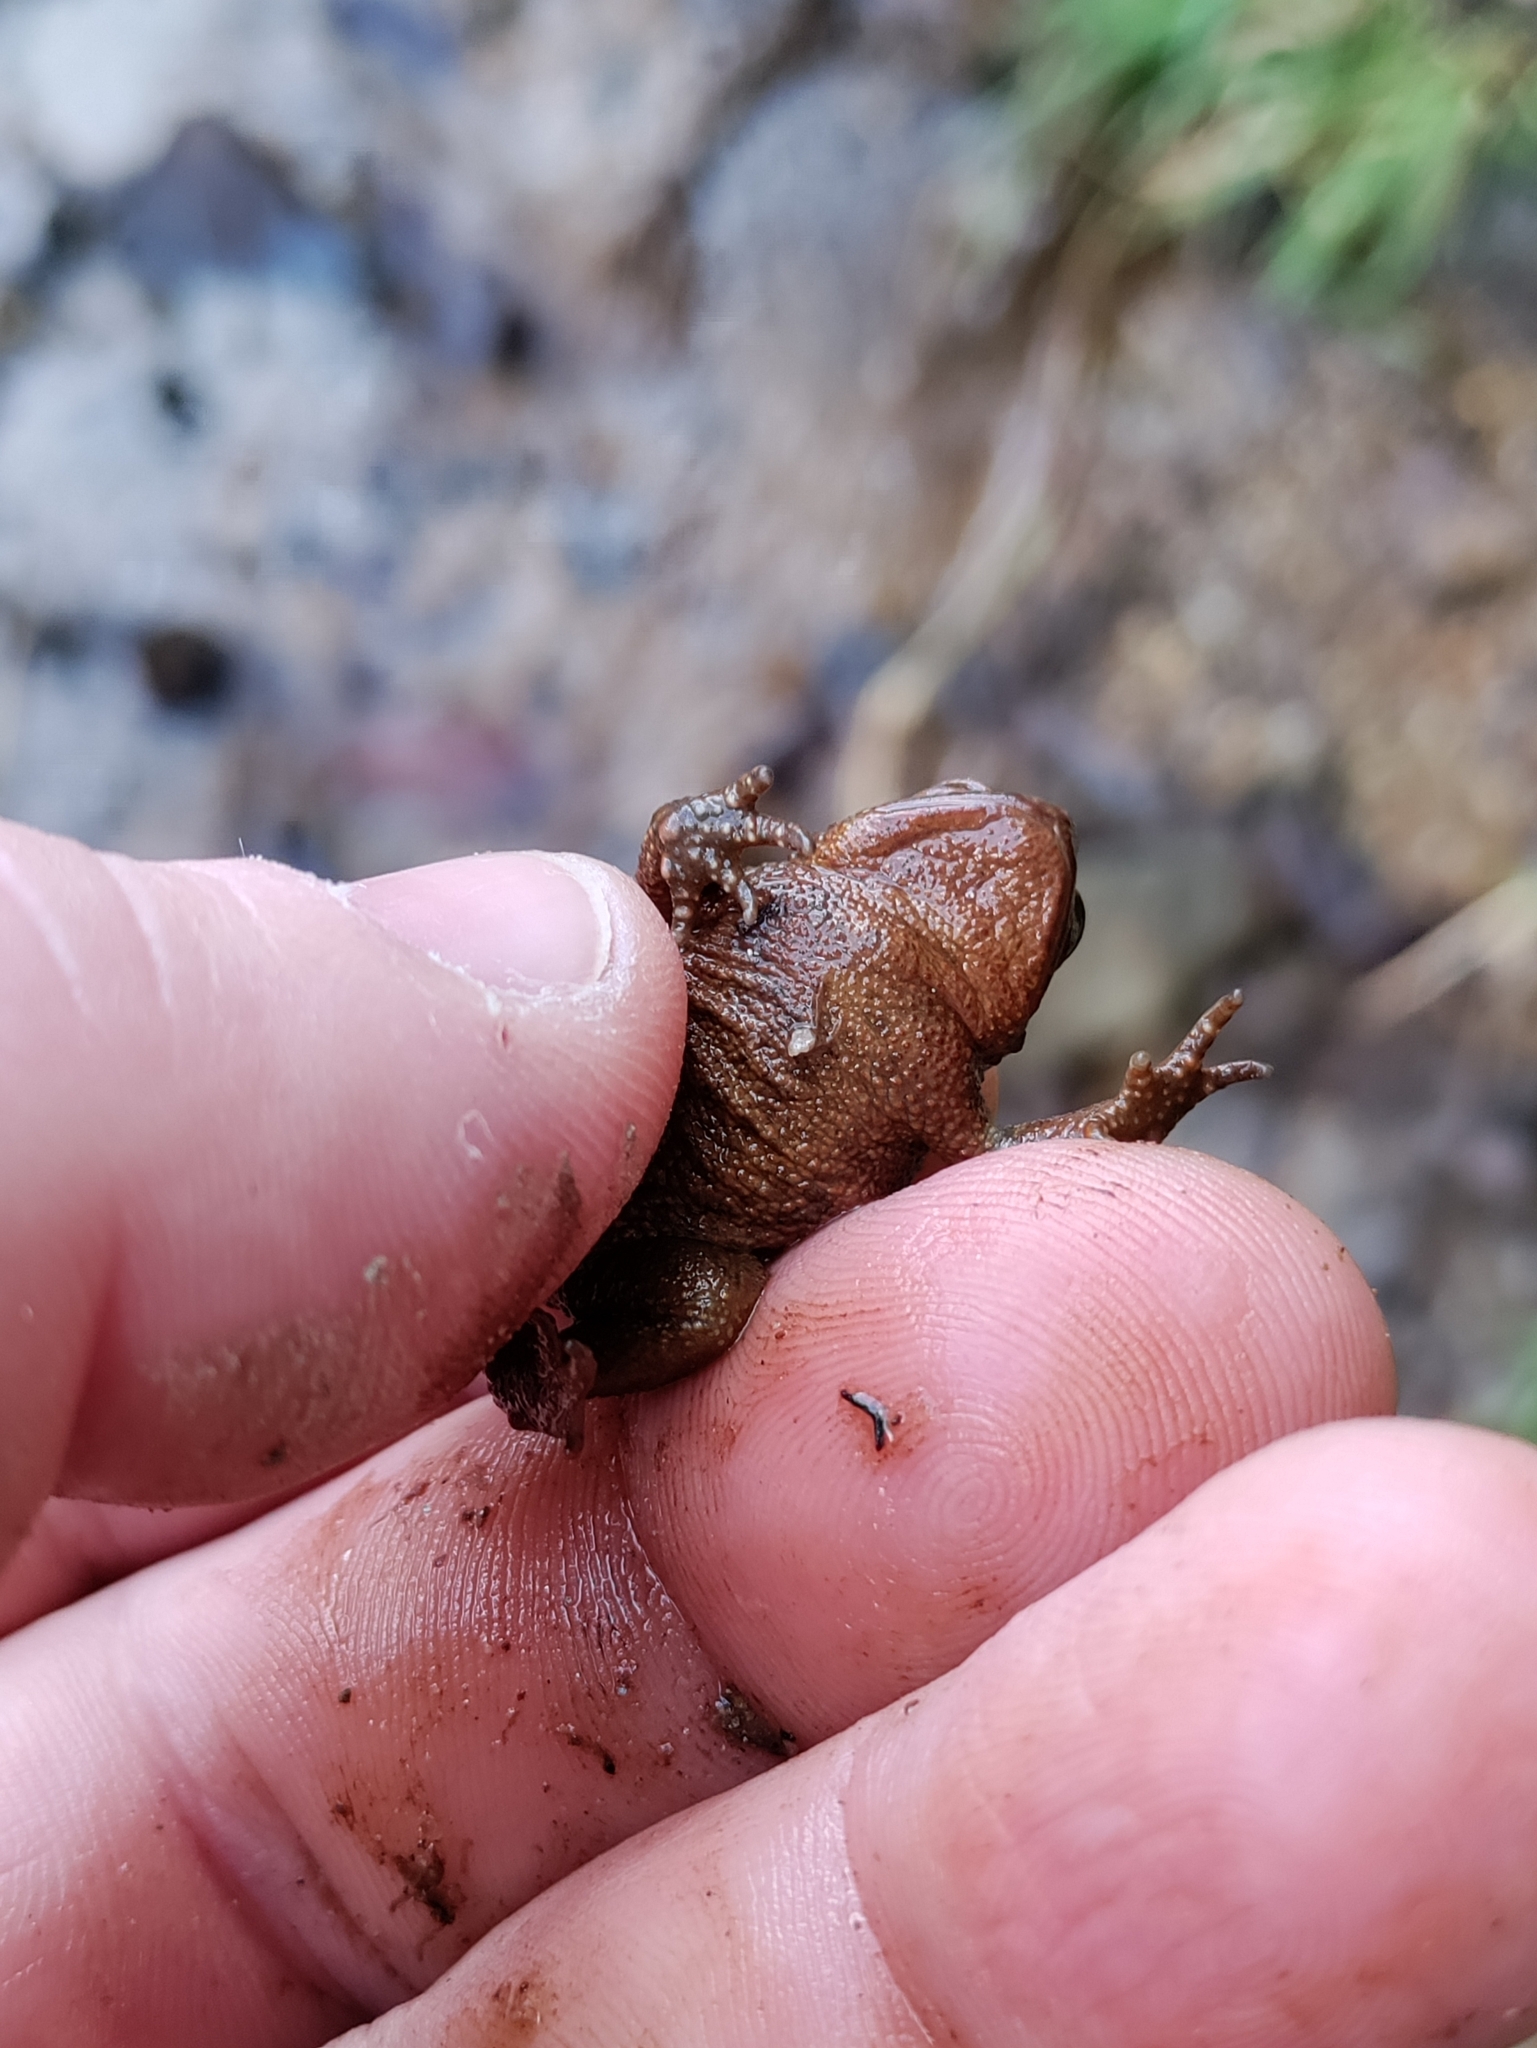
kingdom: Animalia
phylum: Chordata
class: Amphibia
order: Anura
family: Bufonidae
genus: Bufo
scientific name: Bufo bufo
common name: Common toad
